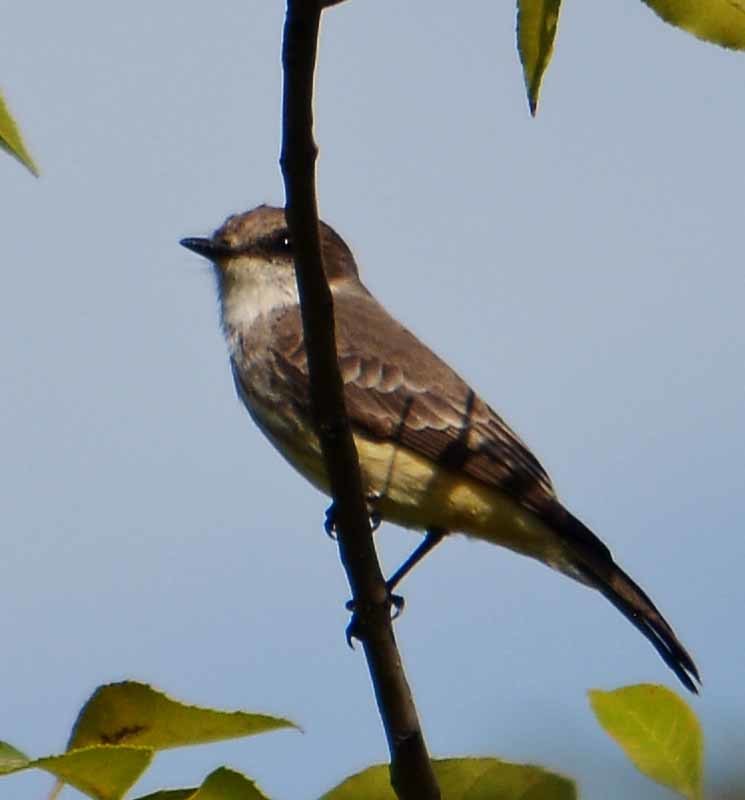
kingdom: Animalia
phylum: Chordata
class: Aves
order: Passeriformes
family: Tyrannidae
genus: Pyrocephalus
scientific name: Pyrocephalus rubinus
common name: Vermilion flycatcher
